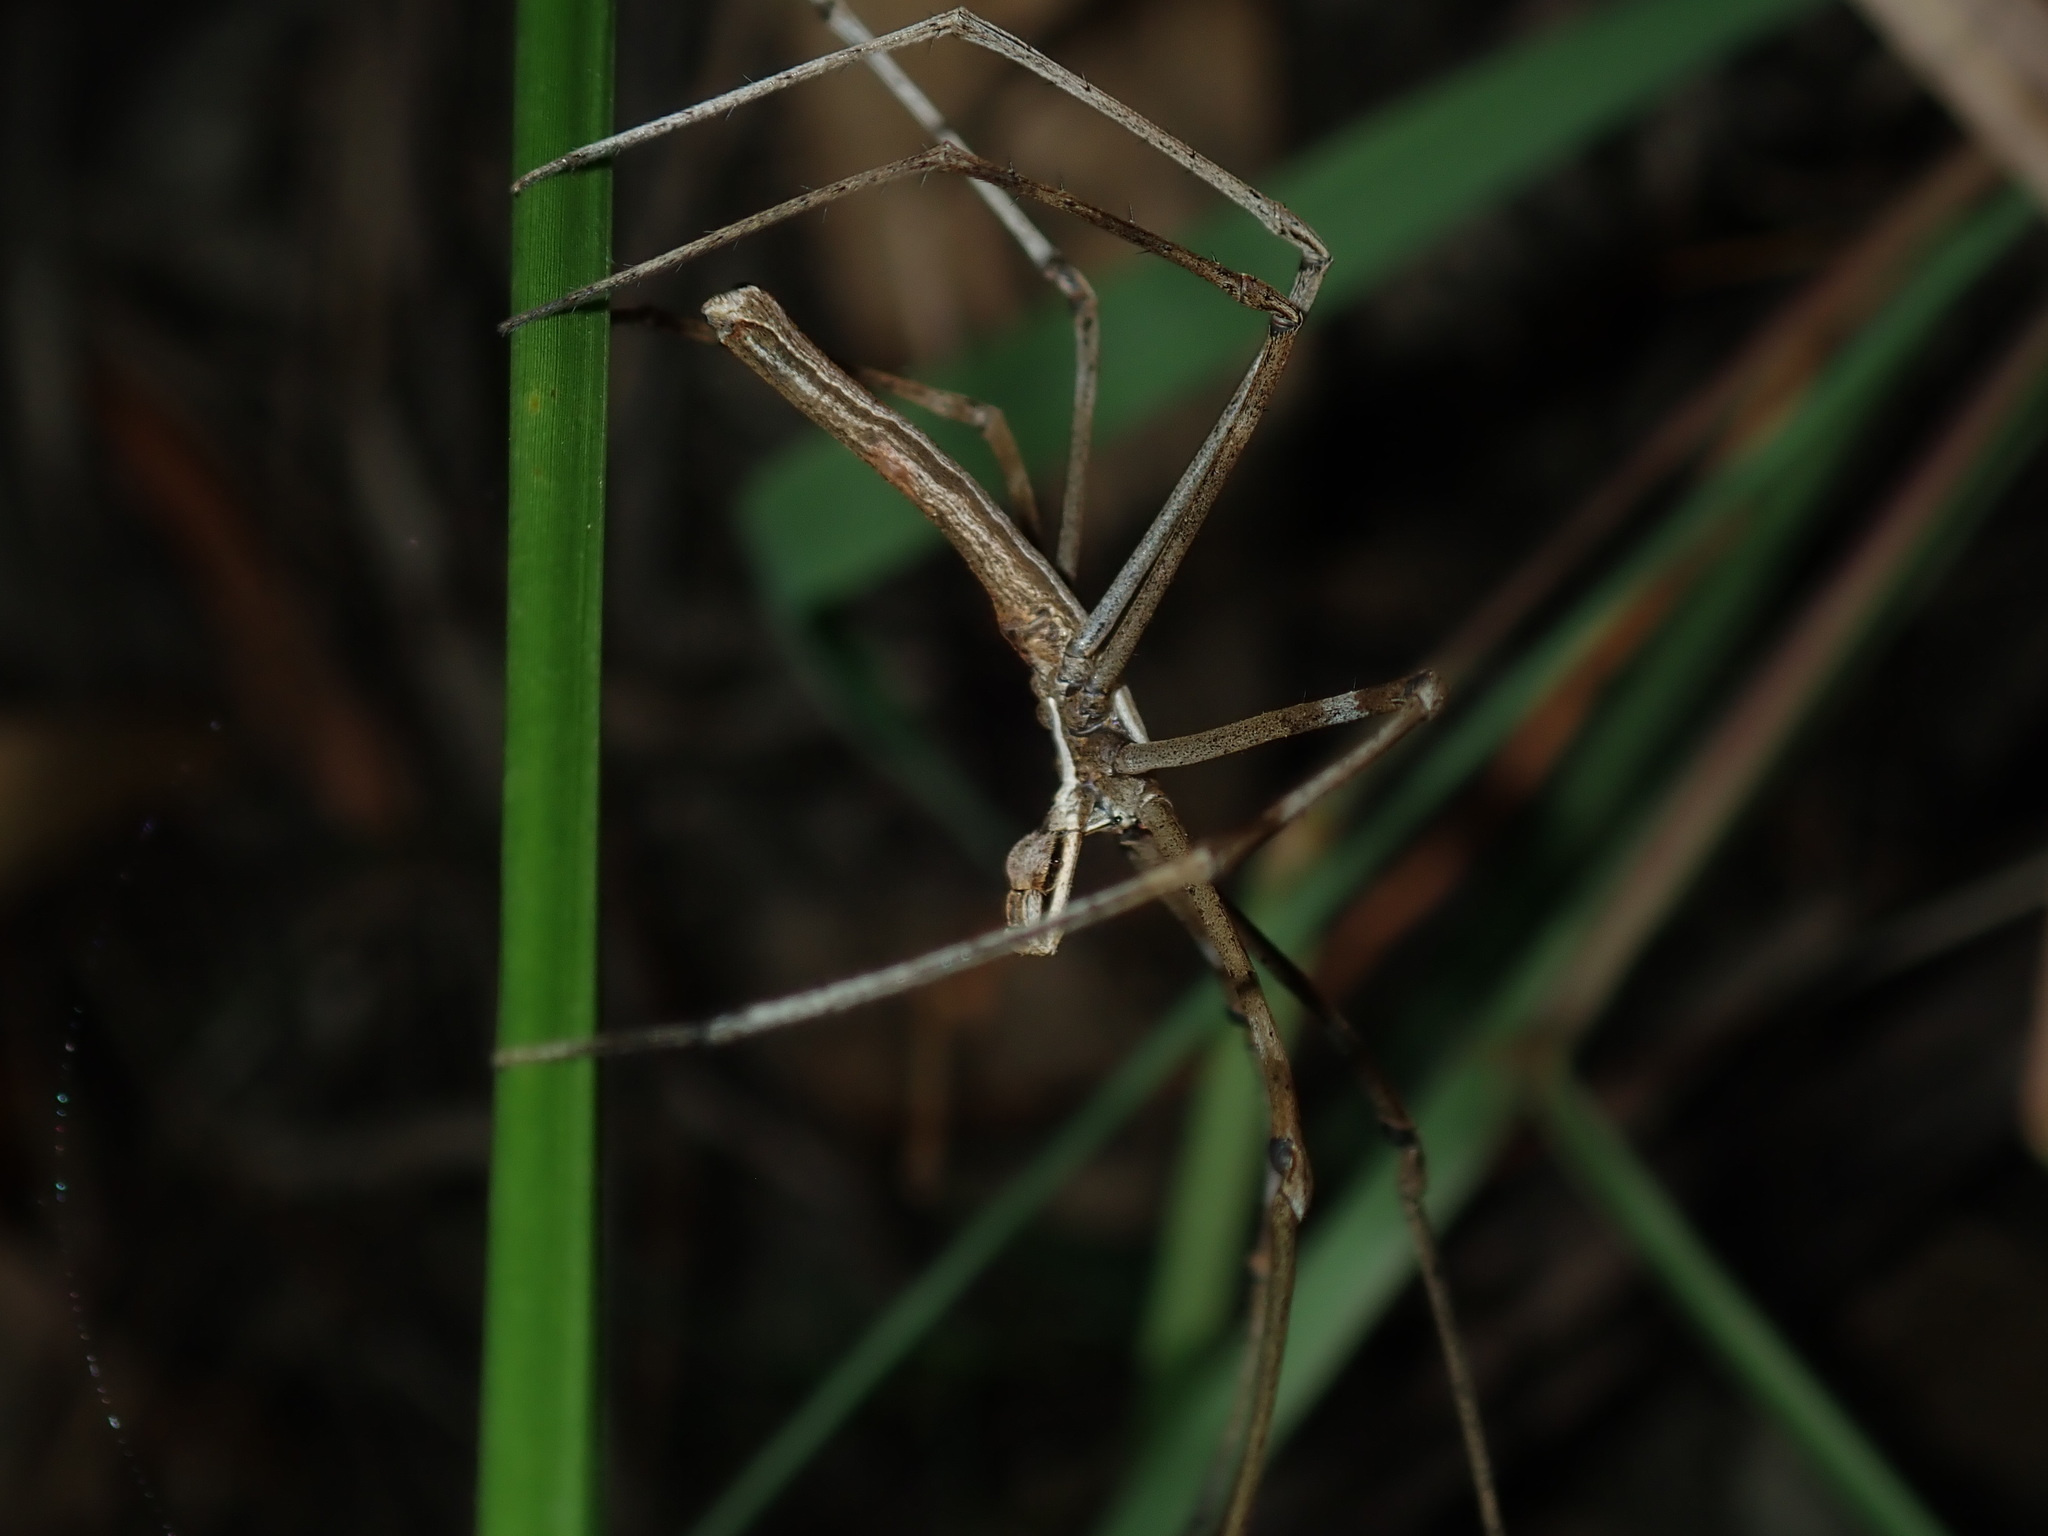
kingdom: Animalia
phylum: Arthropoda
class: Arachnida
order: Araneae
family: Deinopidae
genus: Deinopis
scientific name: Deinopis subrufa
